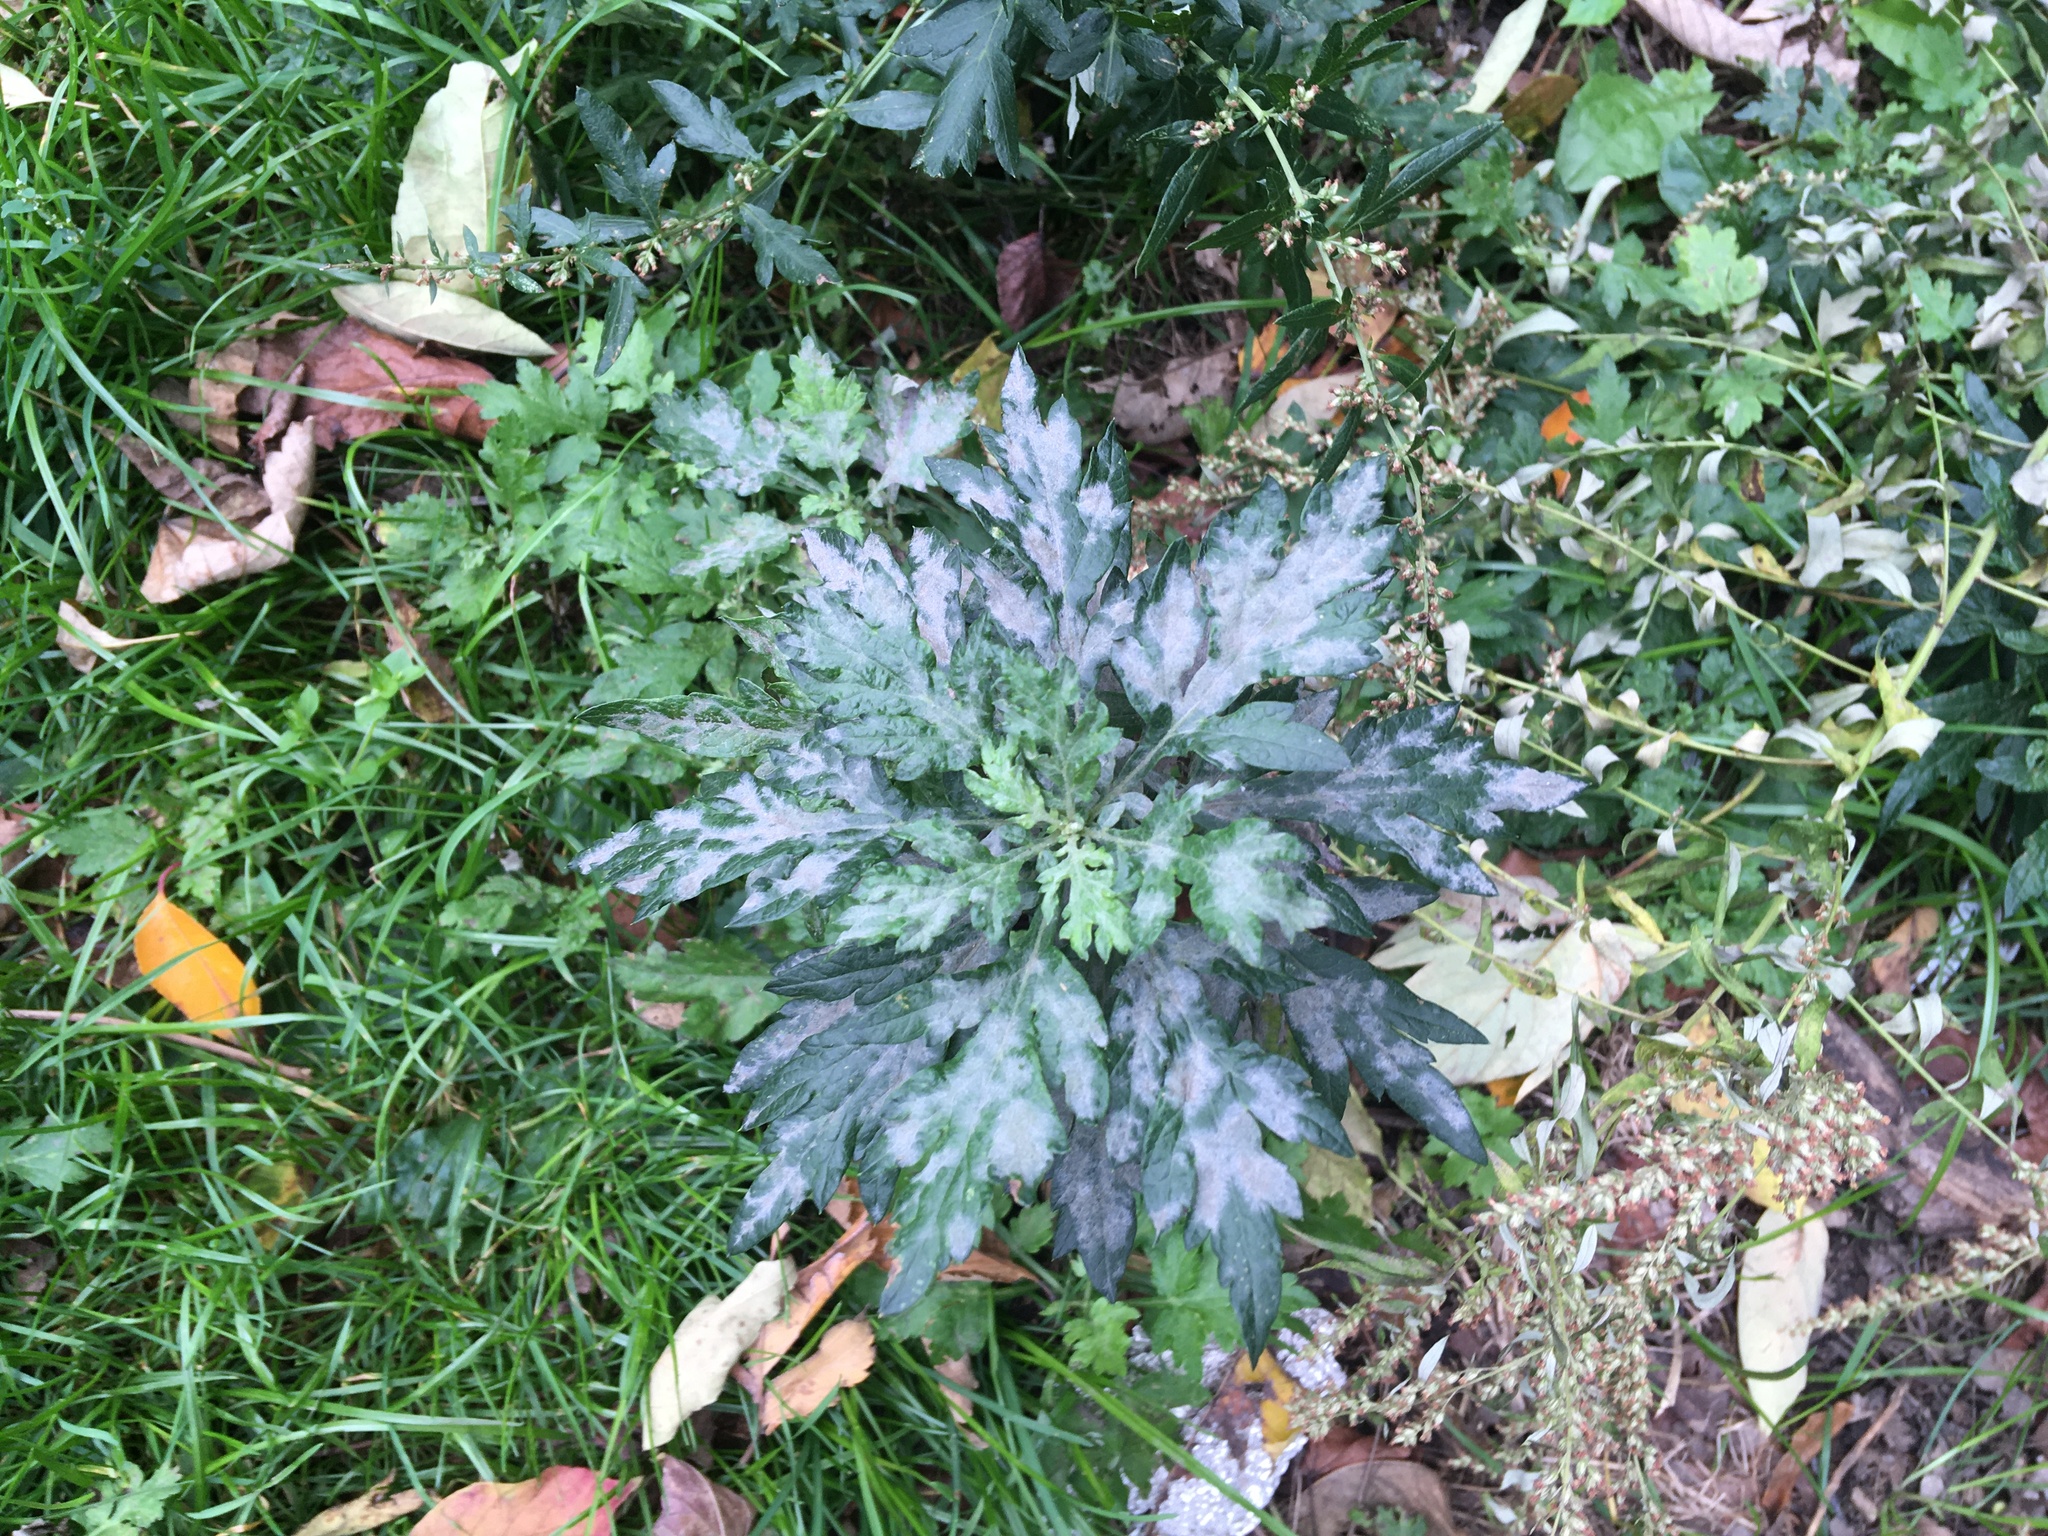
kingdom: Plantae
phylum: Tracheophyta
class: Magnoliopsida
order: Asterales
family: Asteraceae
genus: Artemisia
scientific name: Artemisia vulgaris
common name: Mugwort
